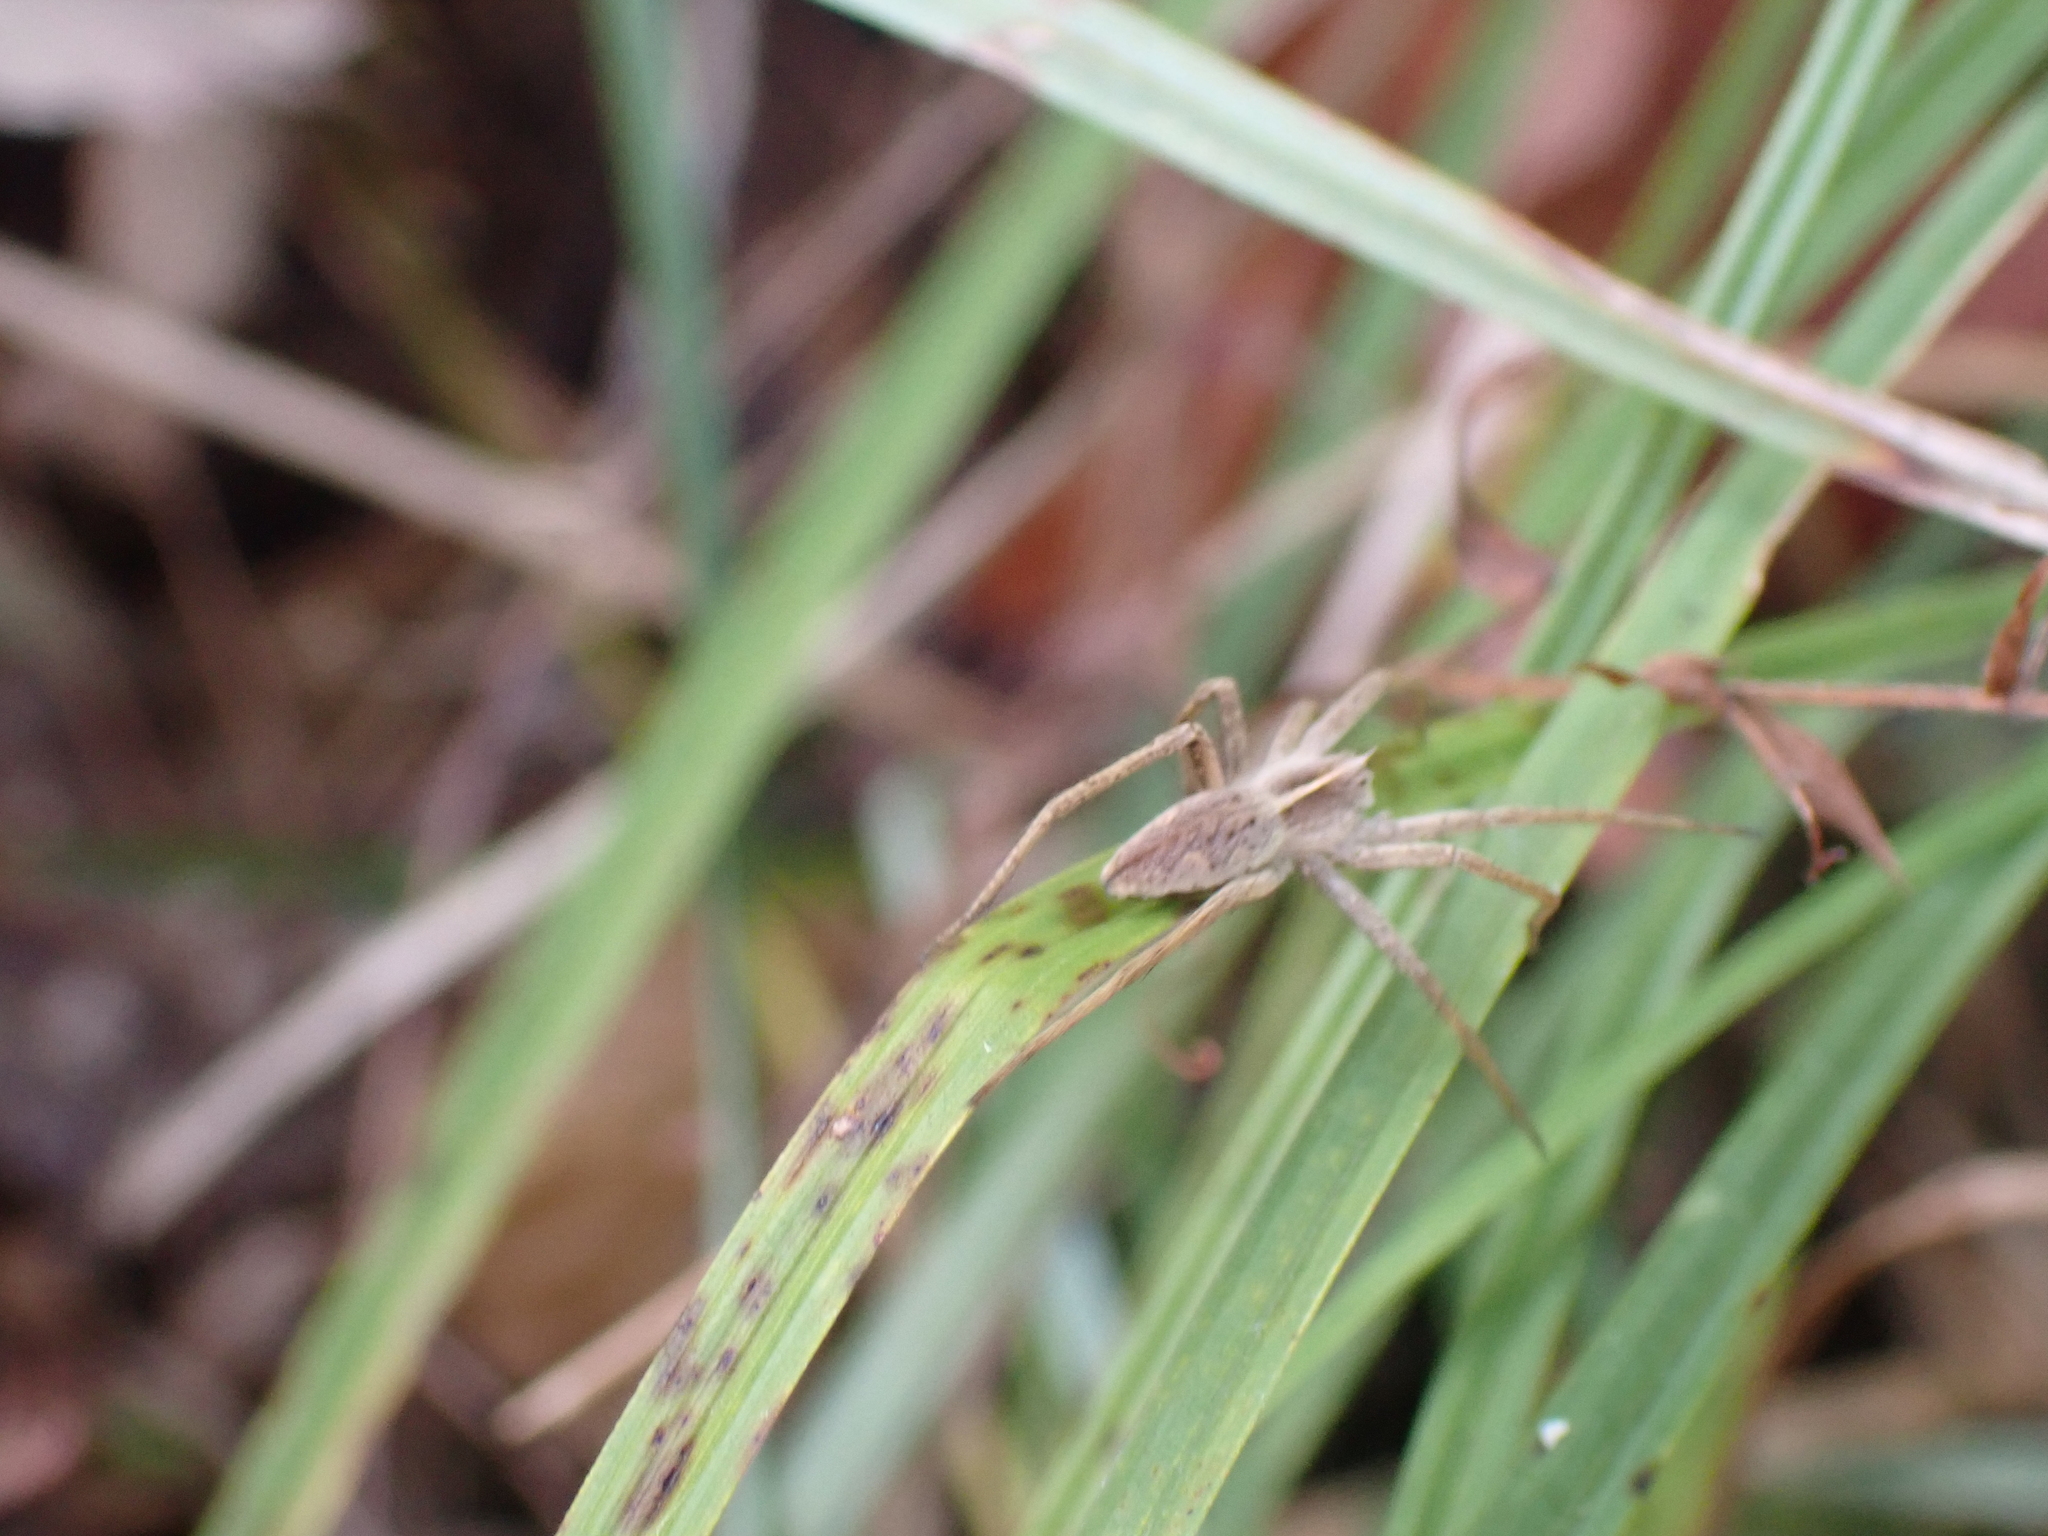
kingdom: Animalia
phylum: Arthropoda
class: Arachnida
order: Araneae
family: Pisauridae
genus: Pisaura
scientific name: Pisaura mirabilis
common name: Tent spider
